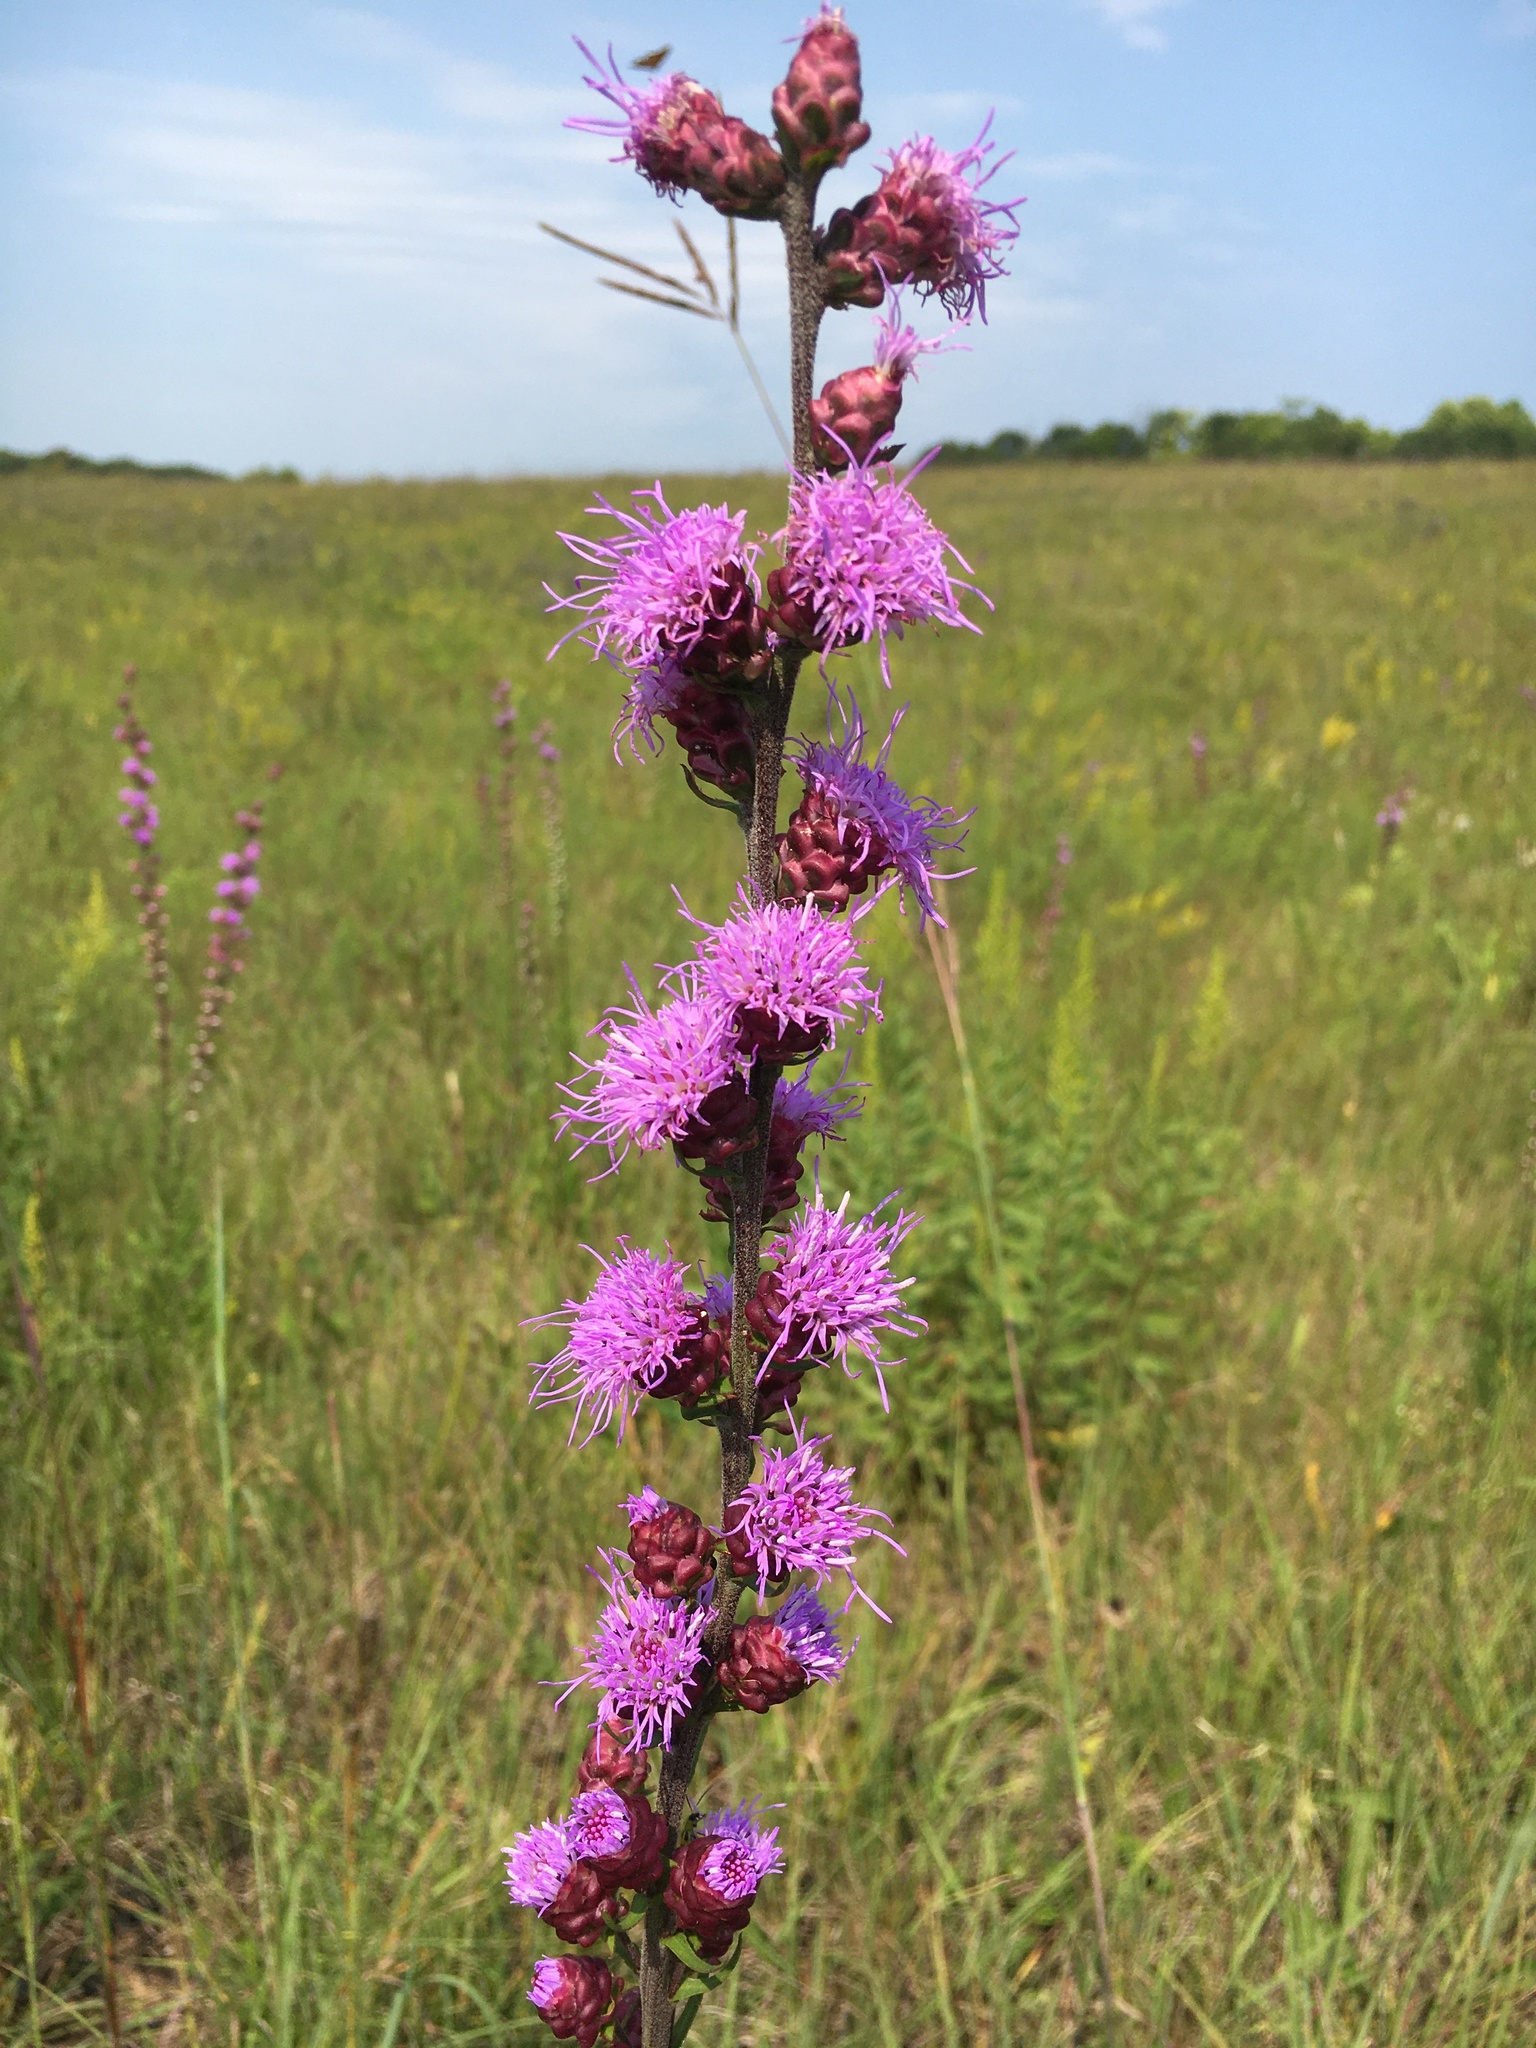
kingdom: Plantae
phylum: Tracheophyta
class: Magnoliopsida
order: Asterales
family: Asteraceae
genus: Liatris
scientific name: Liatris aspera
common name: Lacerate blazing-star
